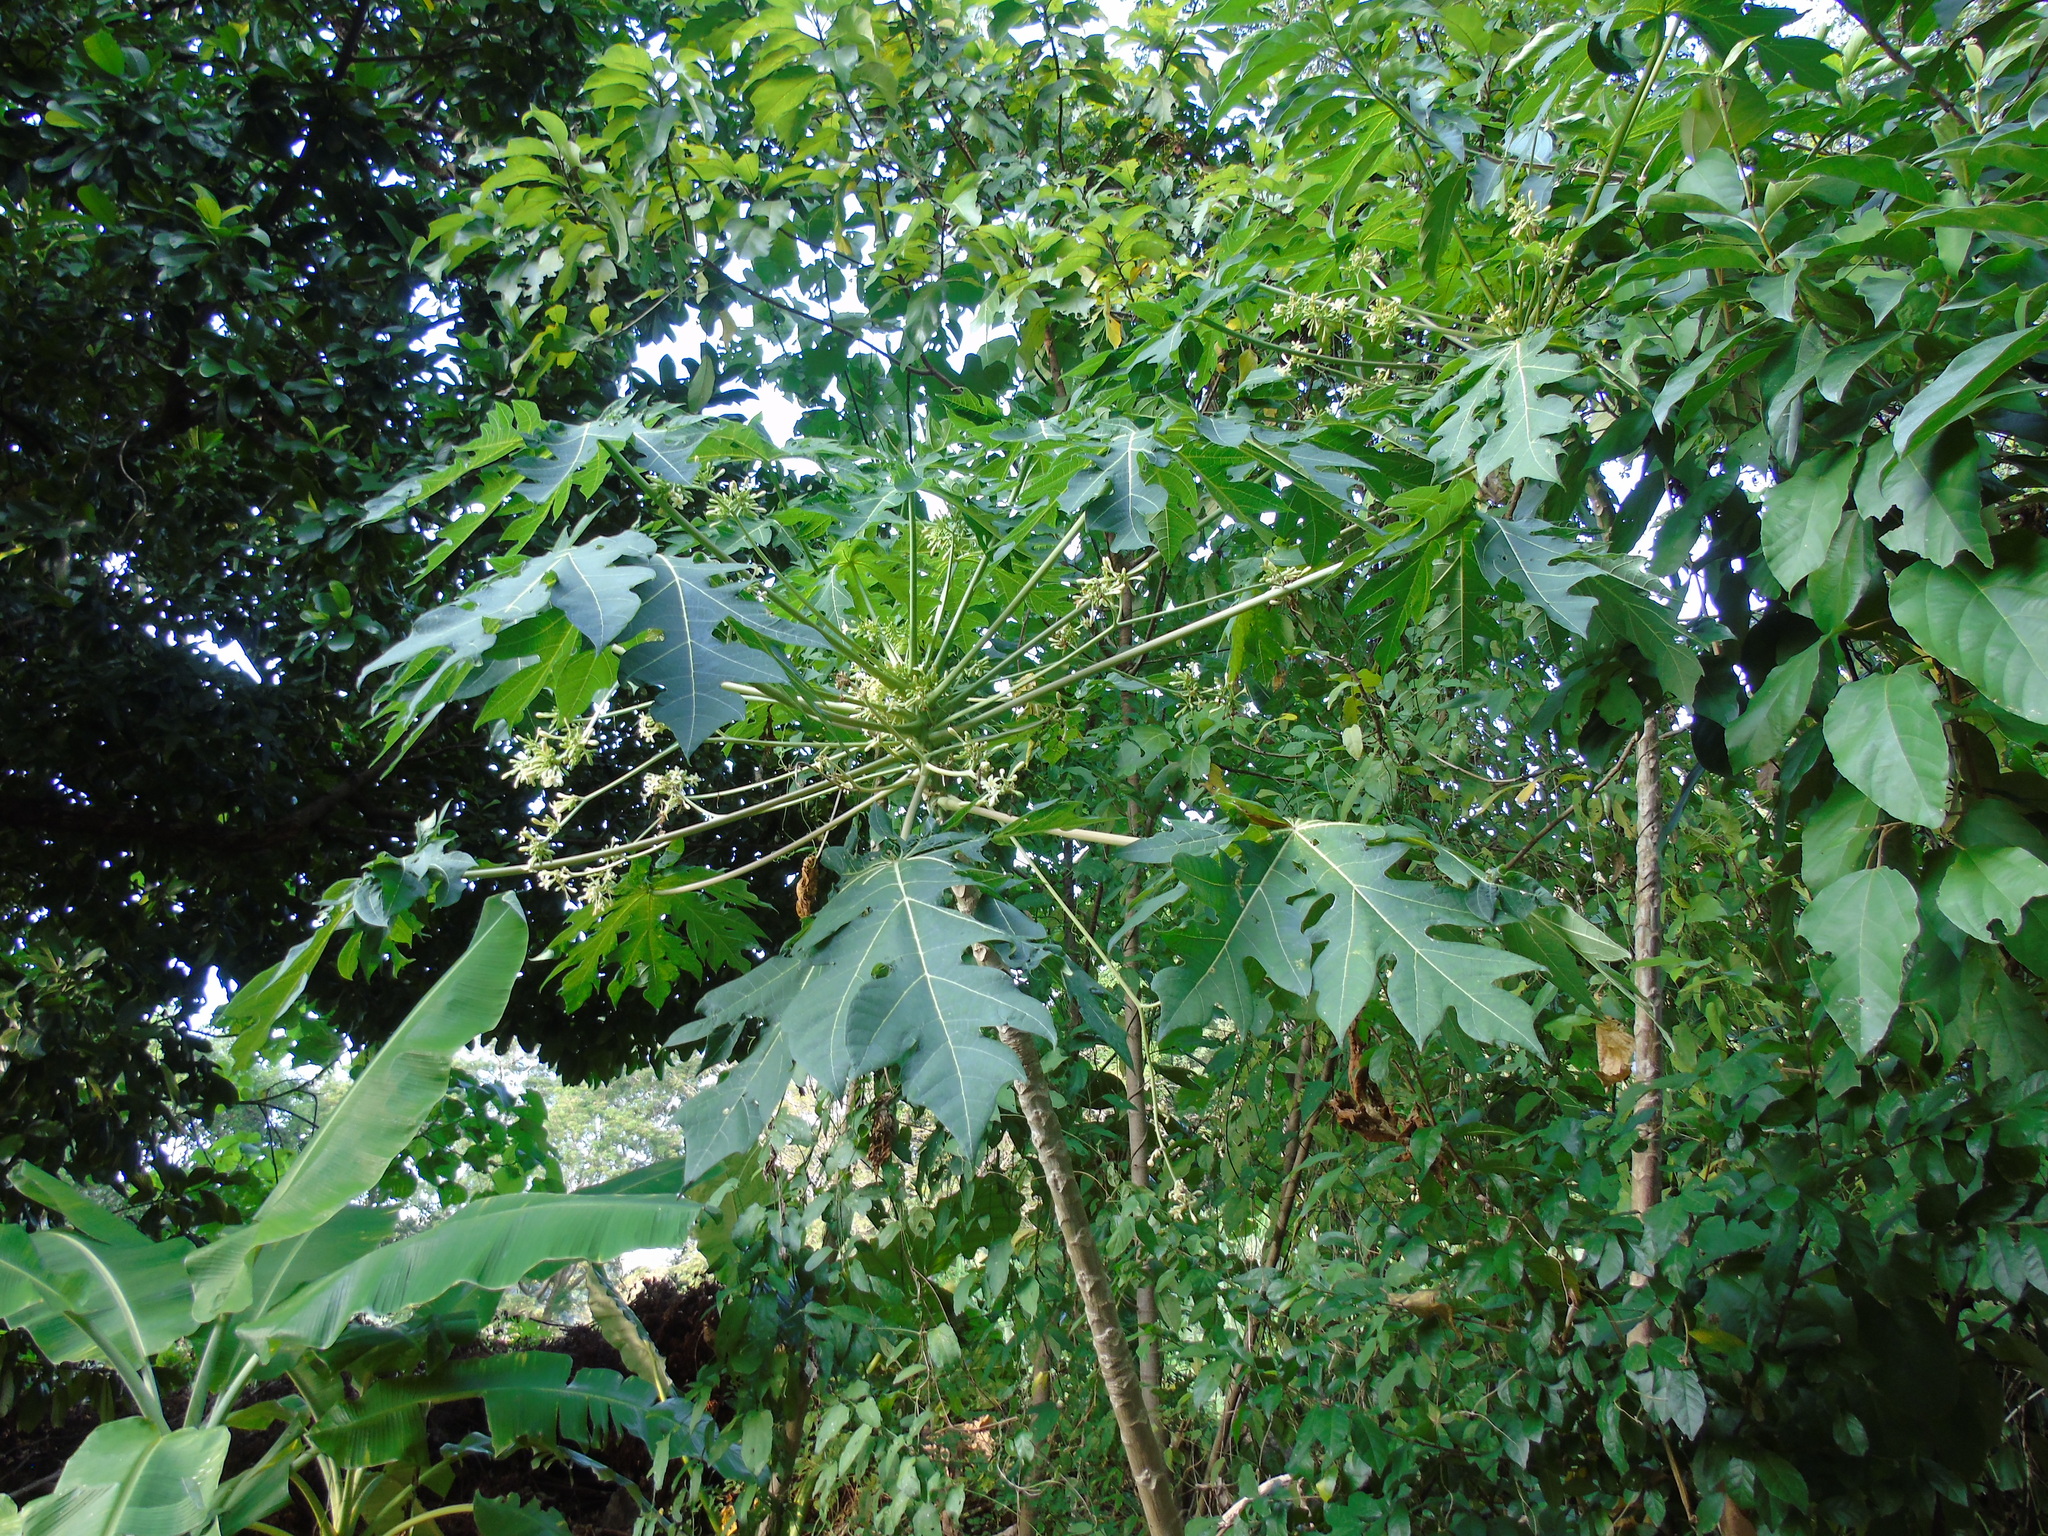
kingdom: Plantae
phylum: Tracheophyta
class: Magnoliopsida
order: Brassicales
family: Caricaceae
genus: Carica
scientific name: Carica papaya
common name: Papaya
